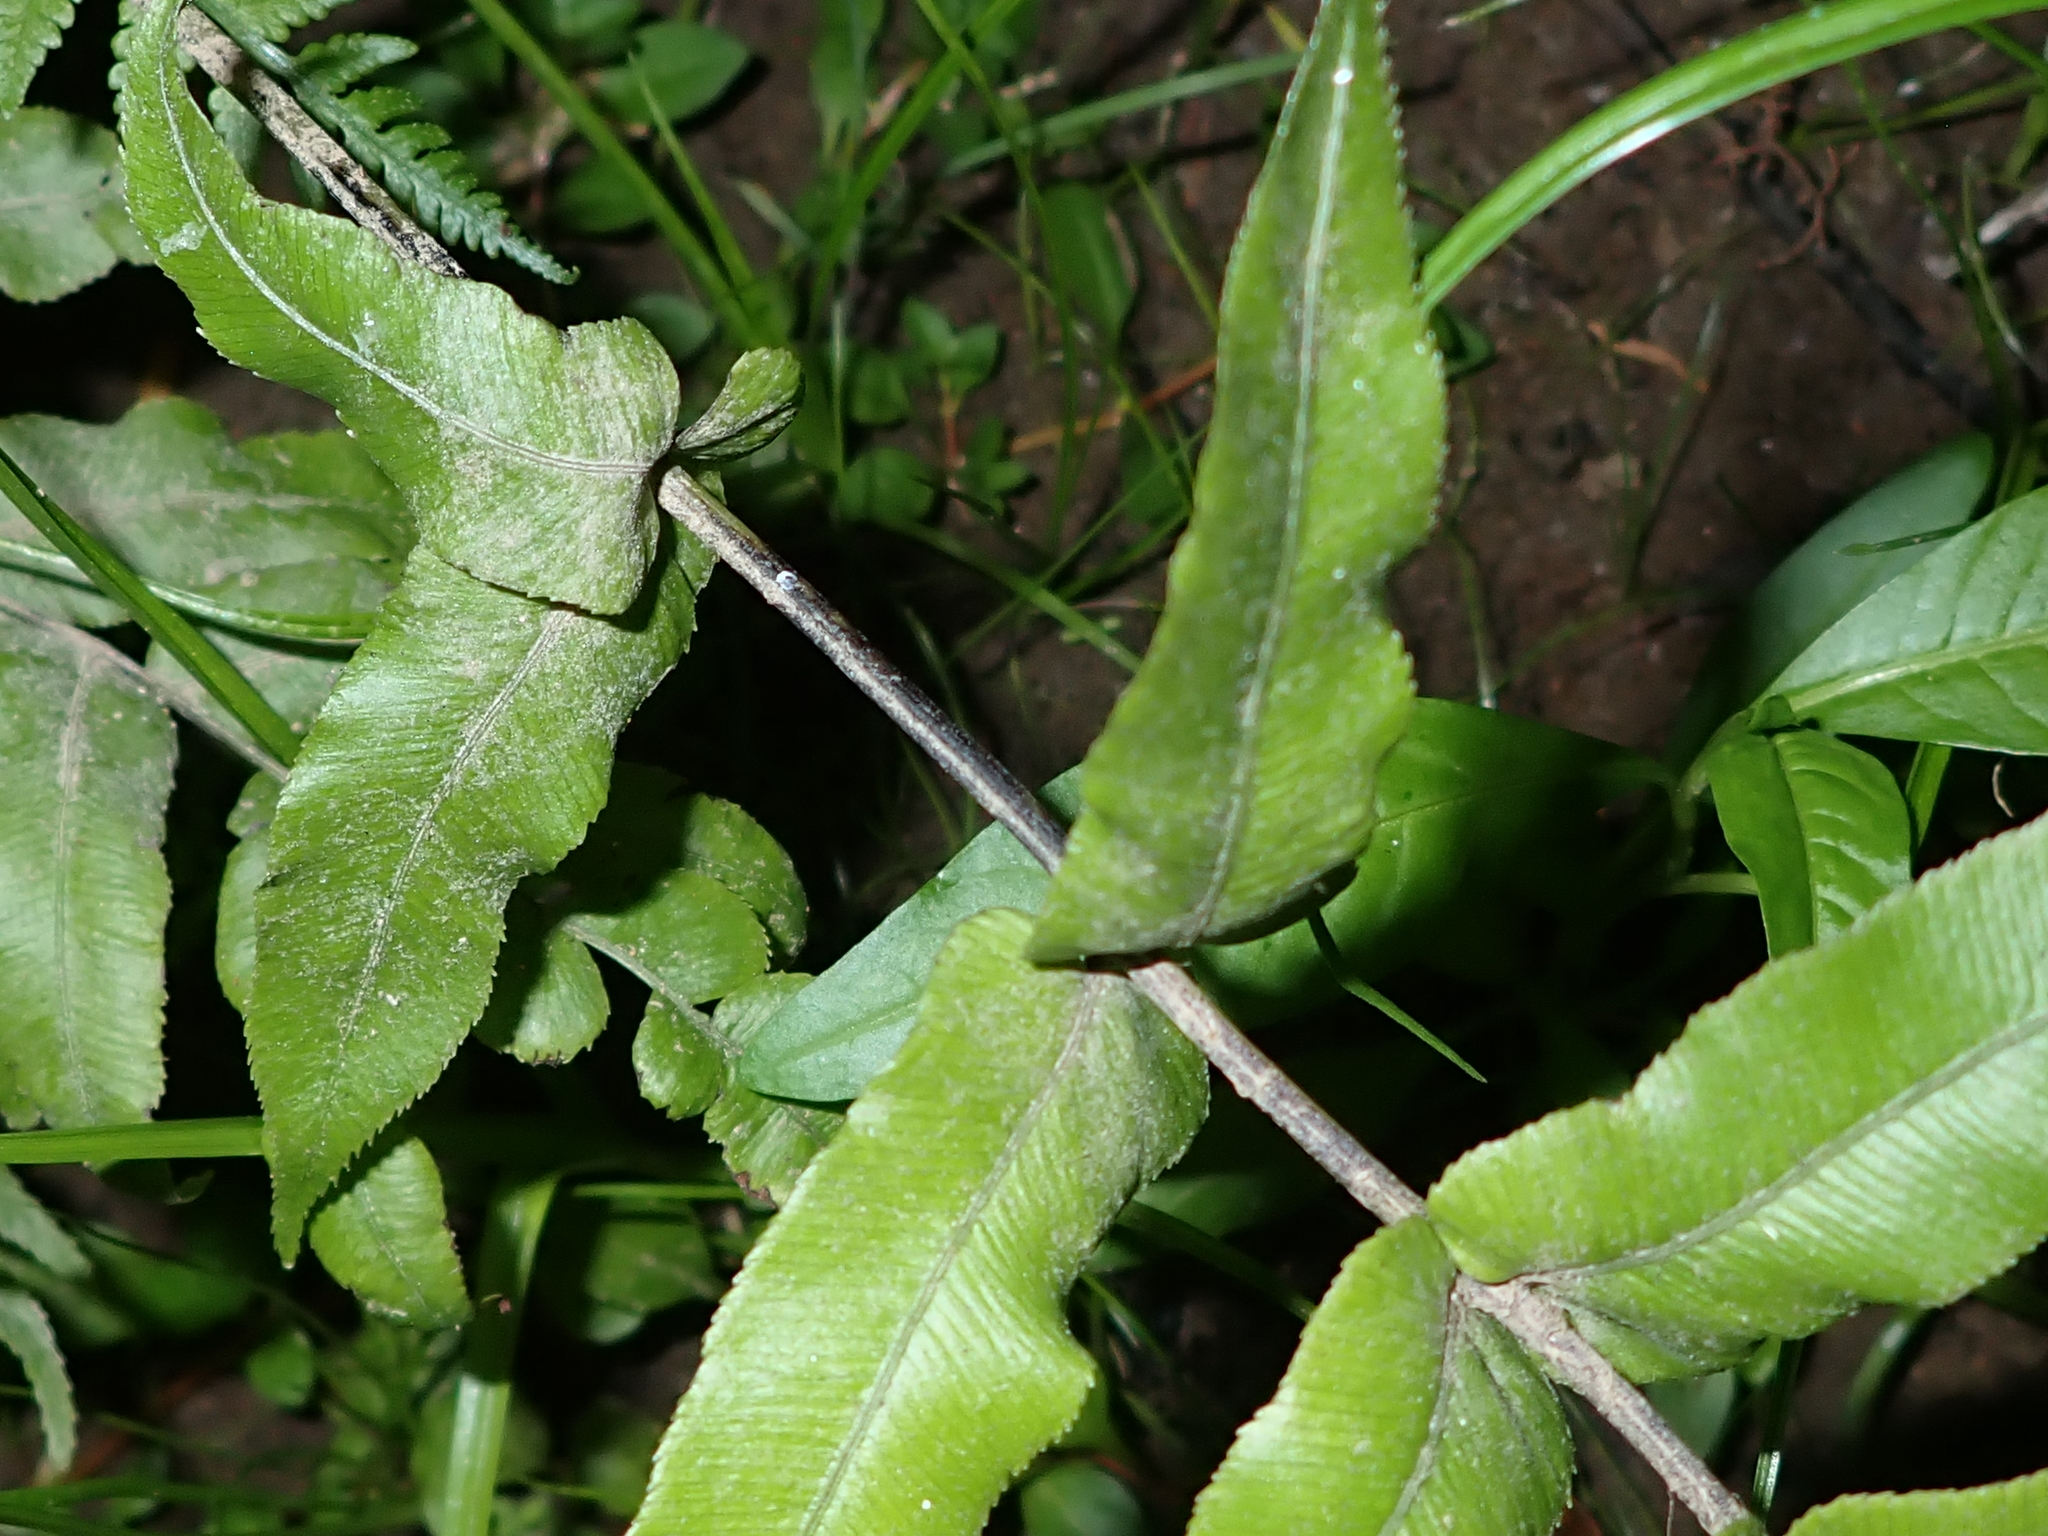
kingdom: Plantae
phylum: Tracheophyta
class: Polypodiopsida
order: Polypodiales
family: Blechnaceae
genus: Parablechnum
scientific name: Parablechnum novae-zelandiae
